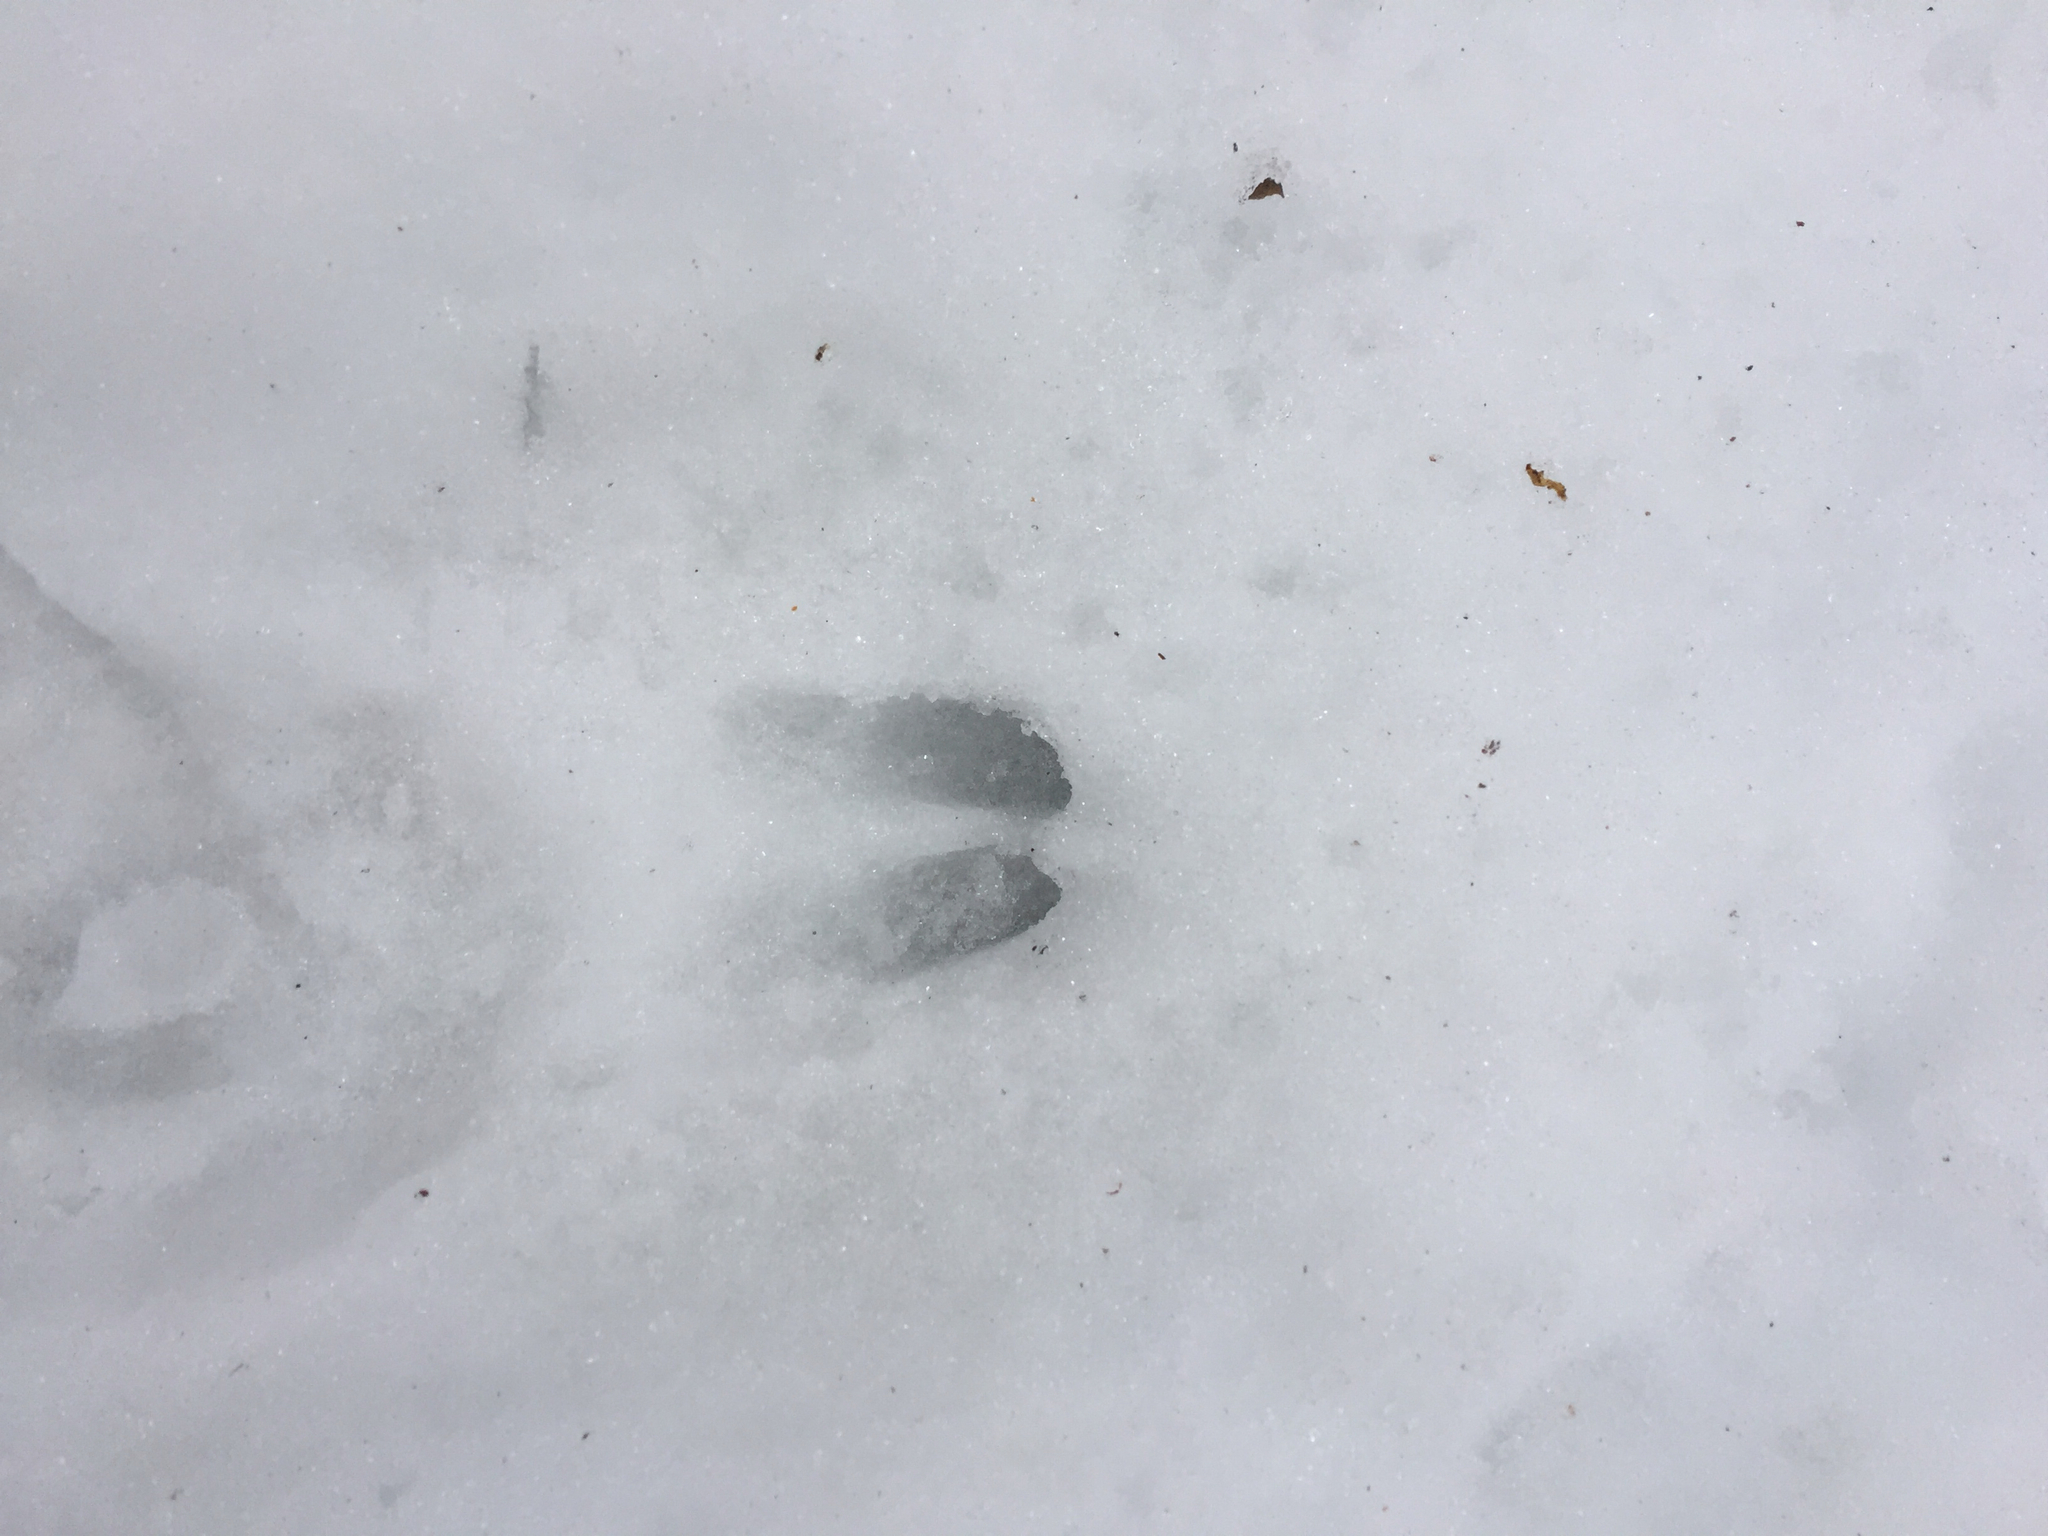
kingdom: Animalia
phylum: Chordata
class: Mammalia
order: Artiodactyla
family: Cervidae
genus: Odocoileus
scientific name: Odocoileus virginianus
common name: White-tailed deer
